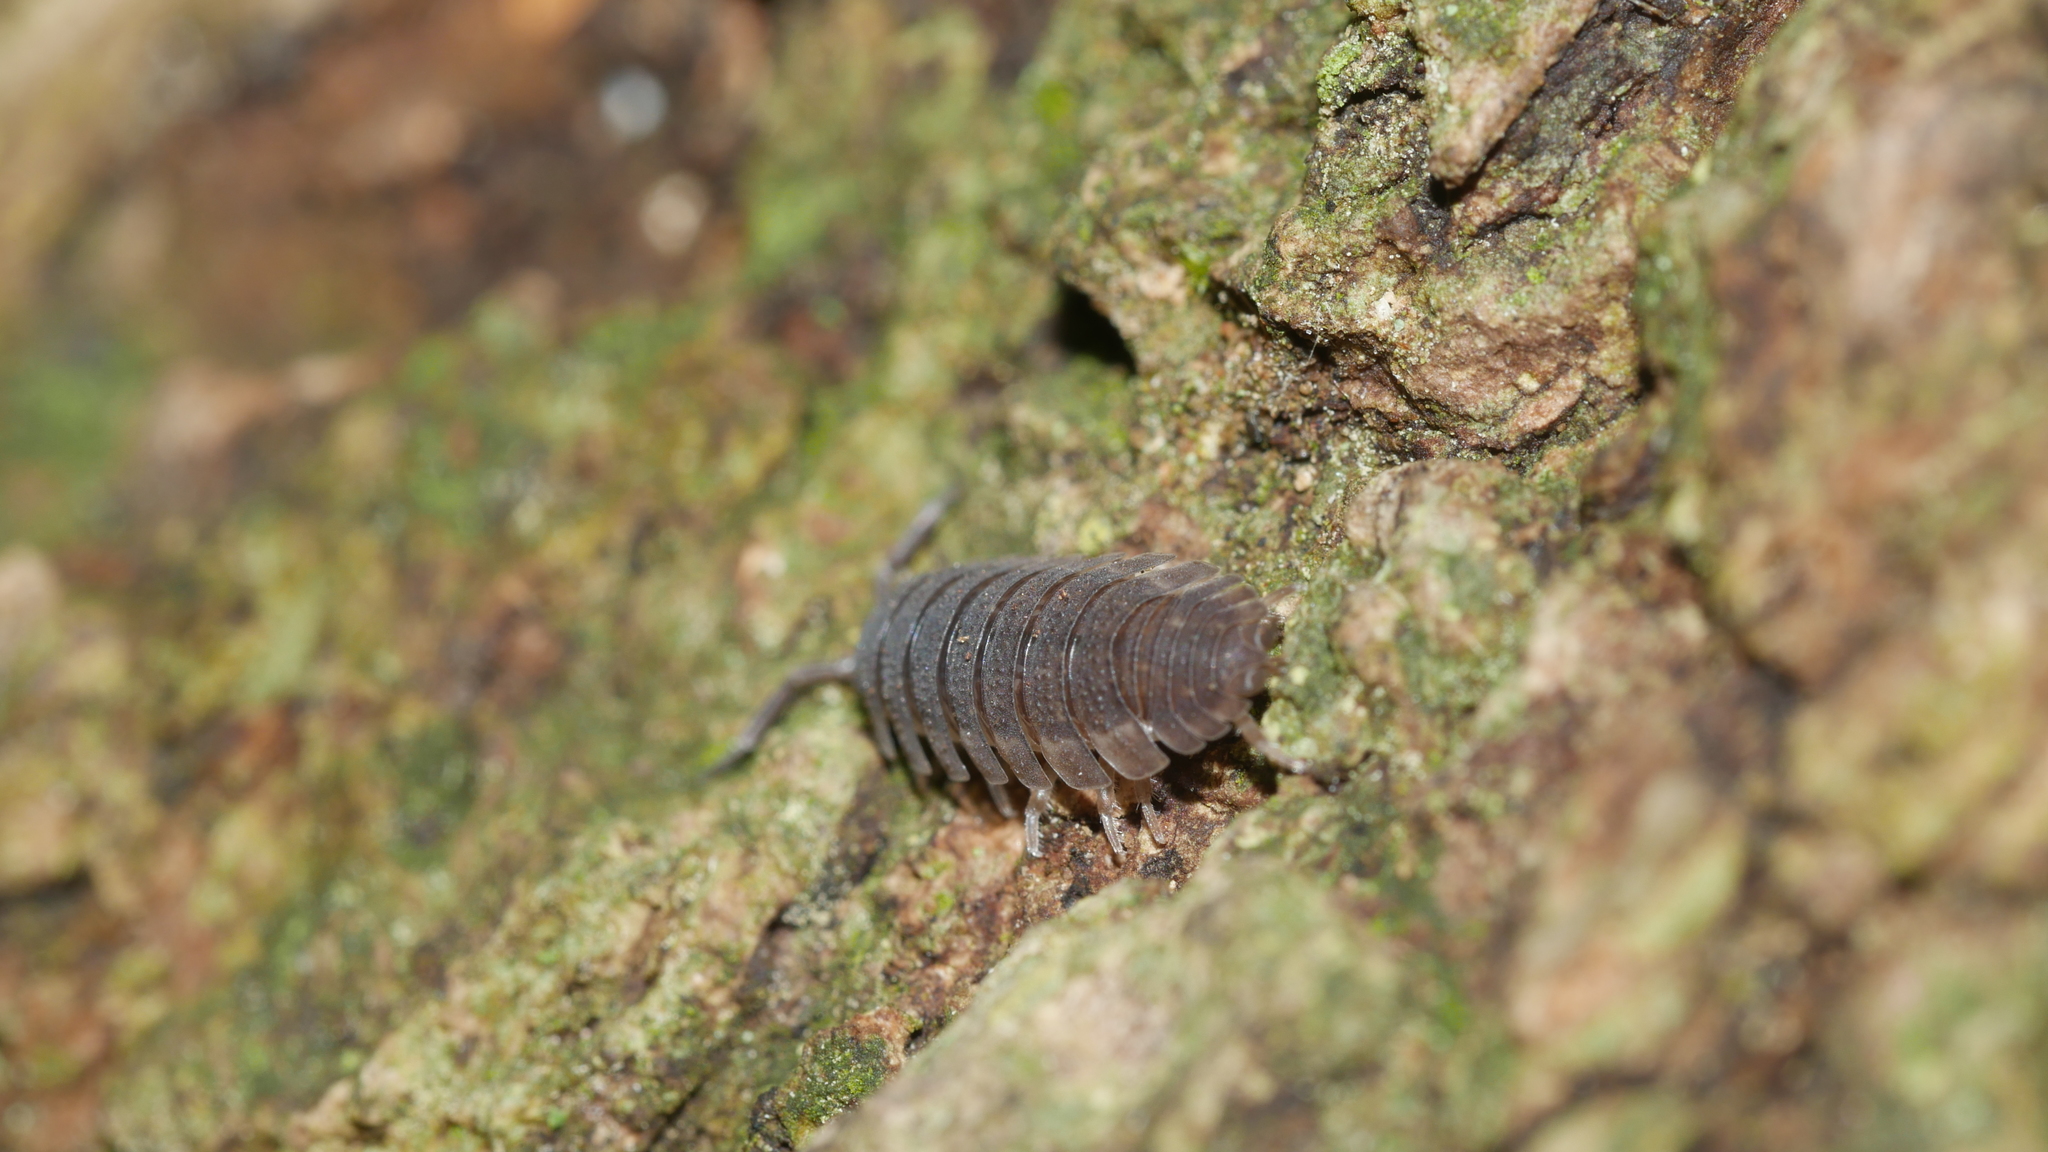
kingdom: Animalia
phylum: Arthropoda
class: Malacostraca
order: Isopoda
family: Porcellionidae
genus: Porcellio
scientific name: Porcellio scaber
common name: Common rough woodlouse
